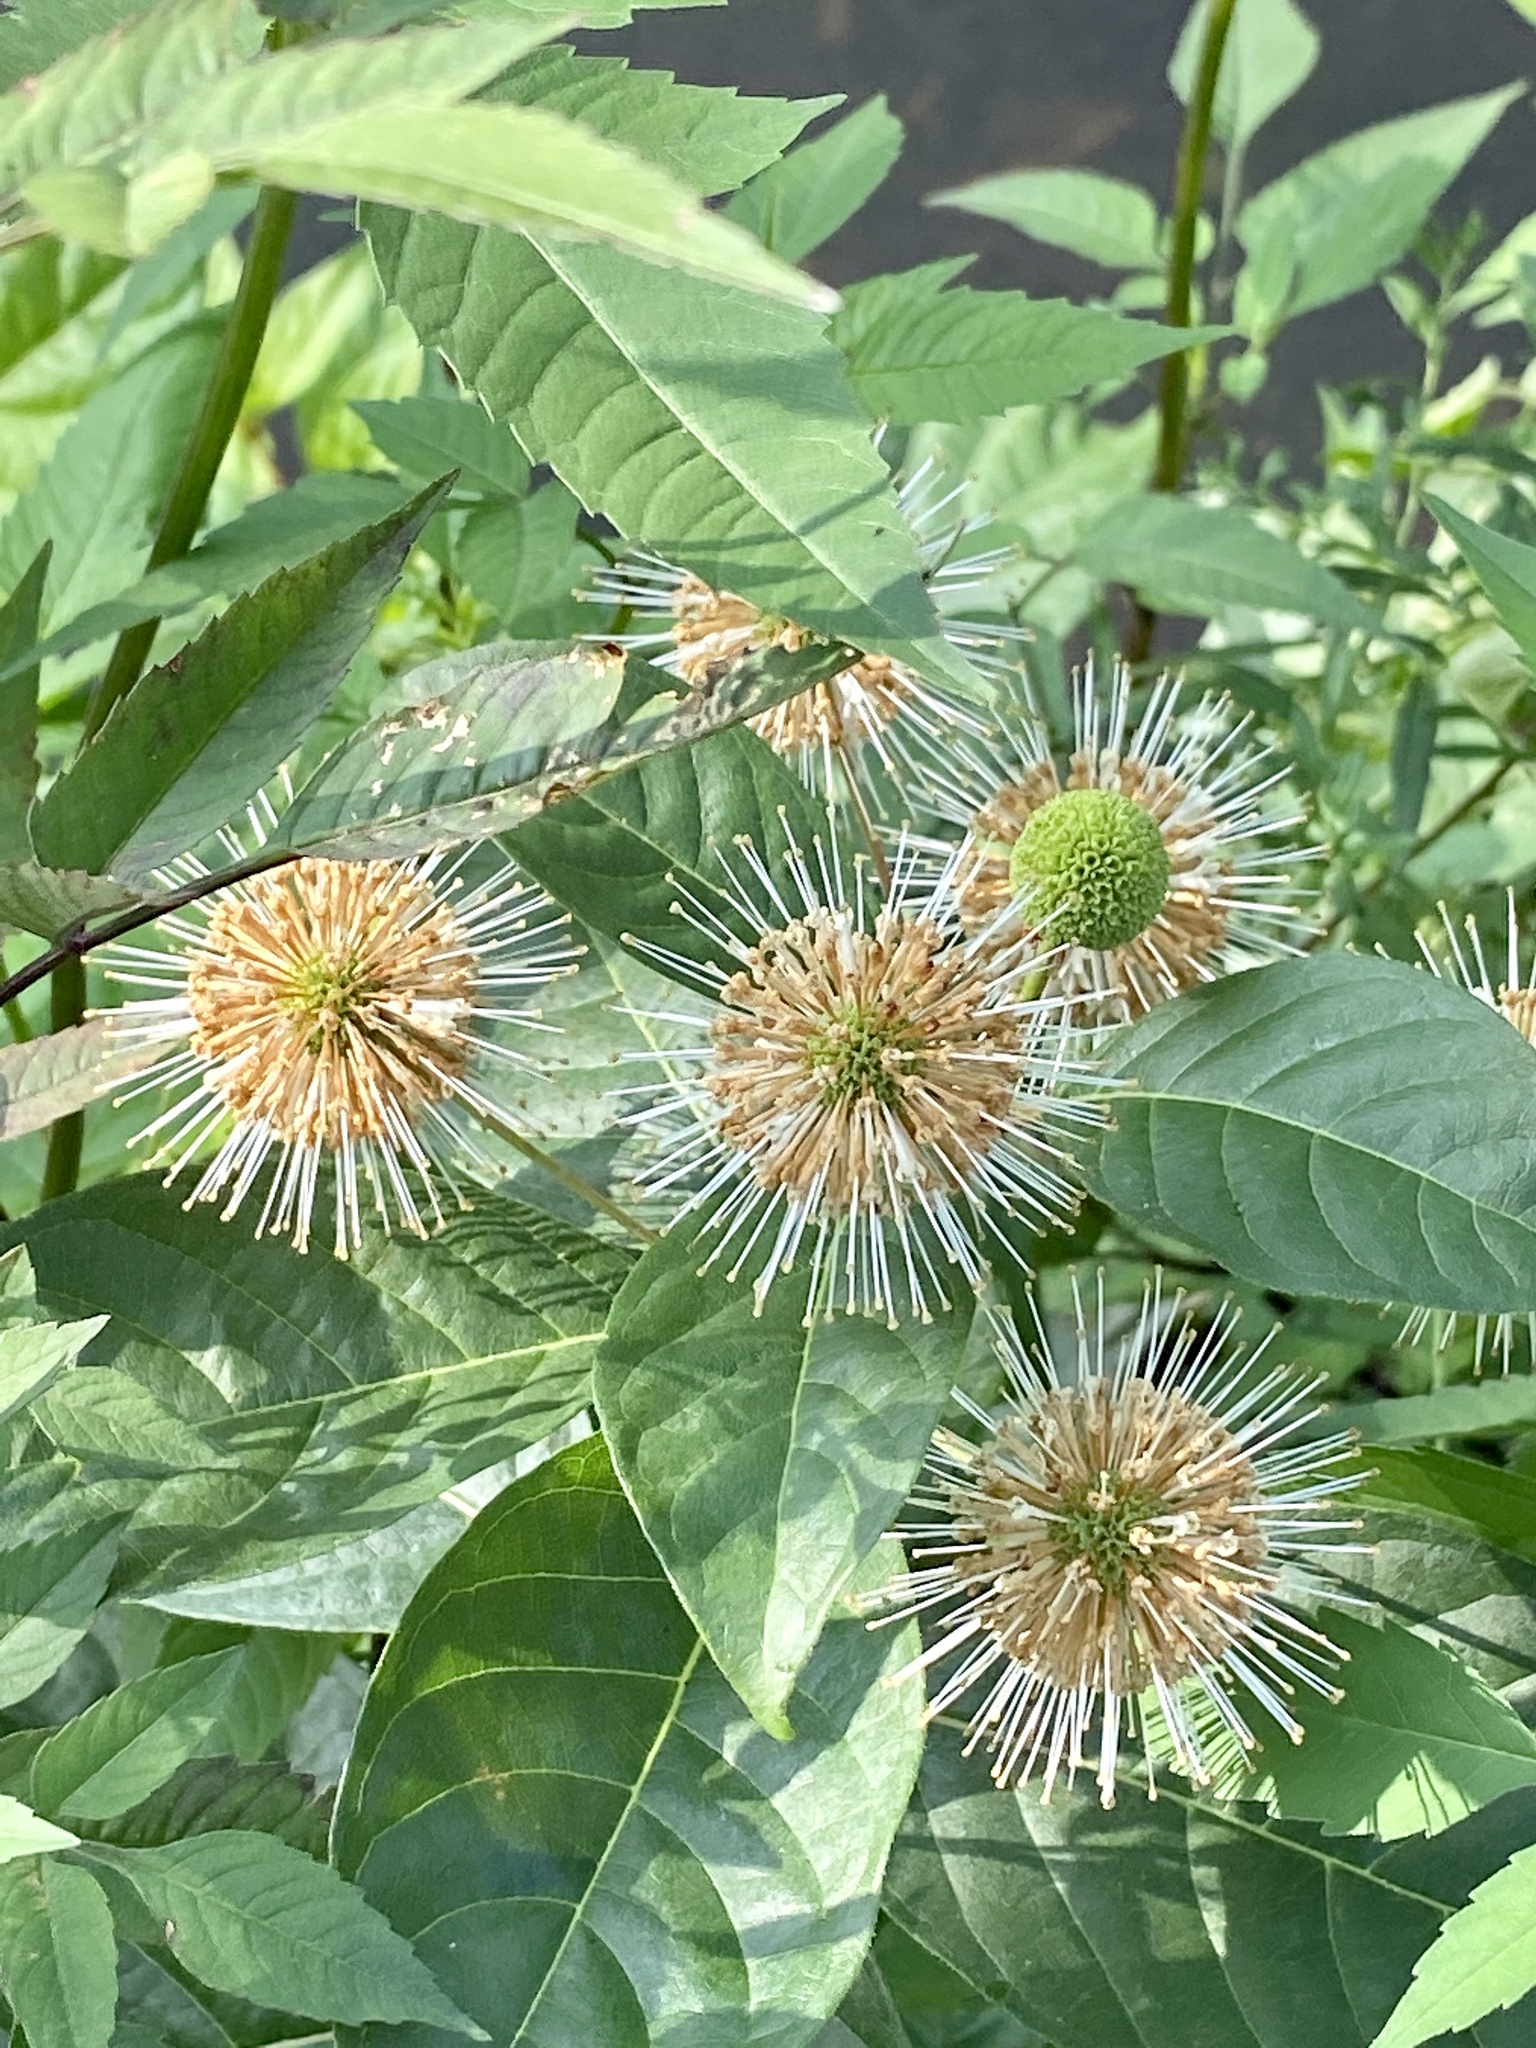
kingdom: Plantae
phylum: Tracheophyta
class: Magnoliopsida
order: Gentianales
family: Rubiaceae
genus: Cephalanthus
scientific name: Cephalanthus occidentalis
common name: Button-willow
